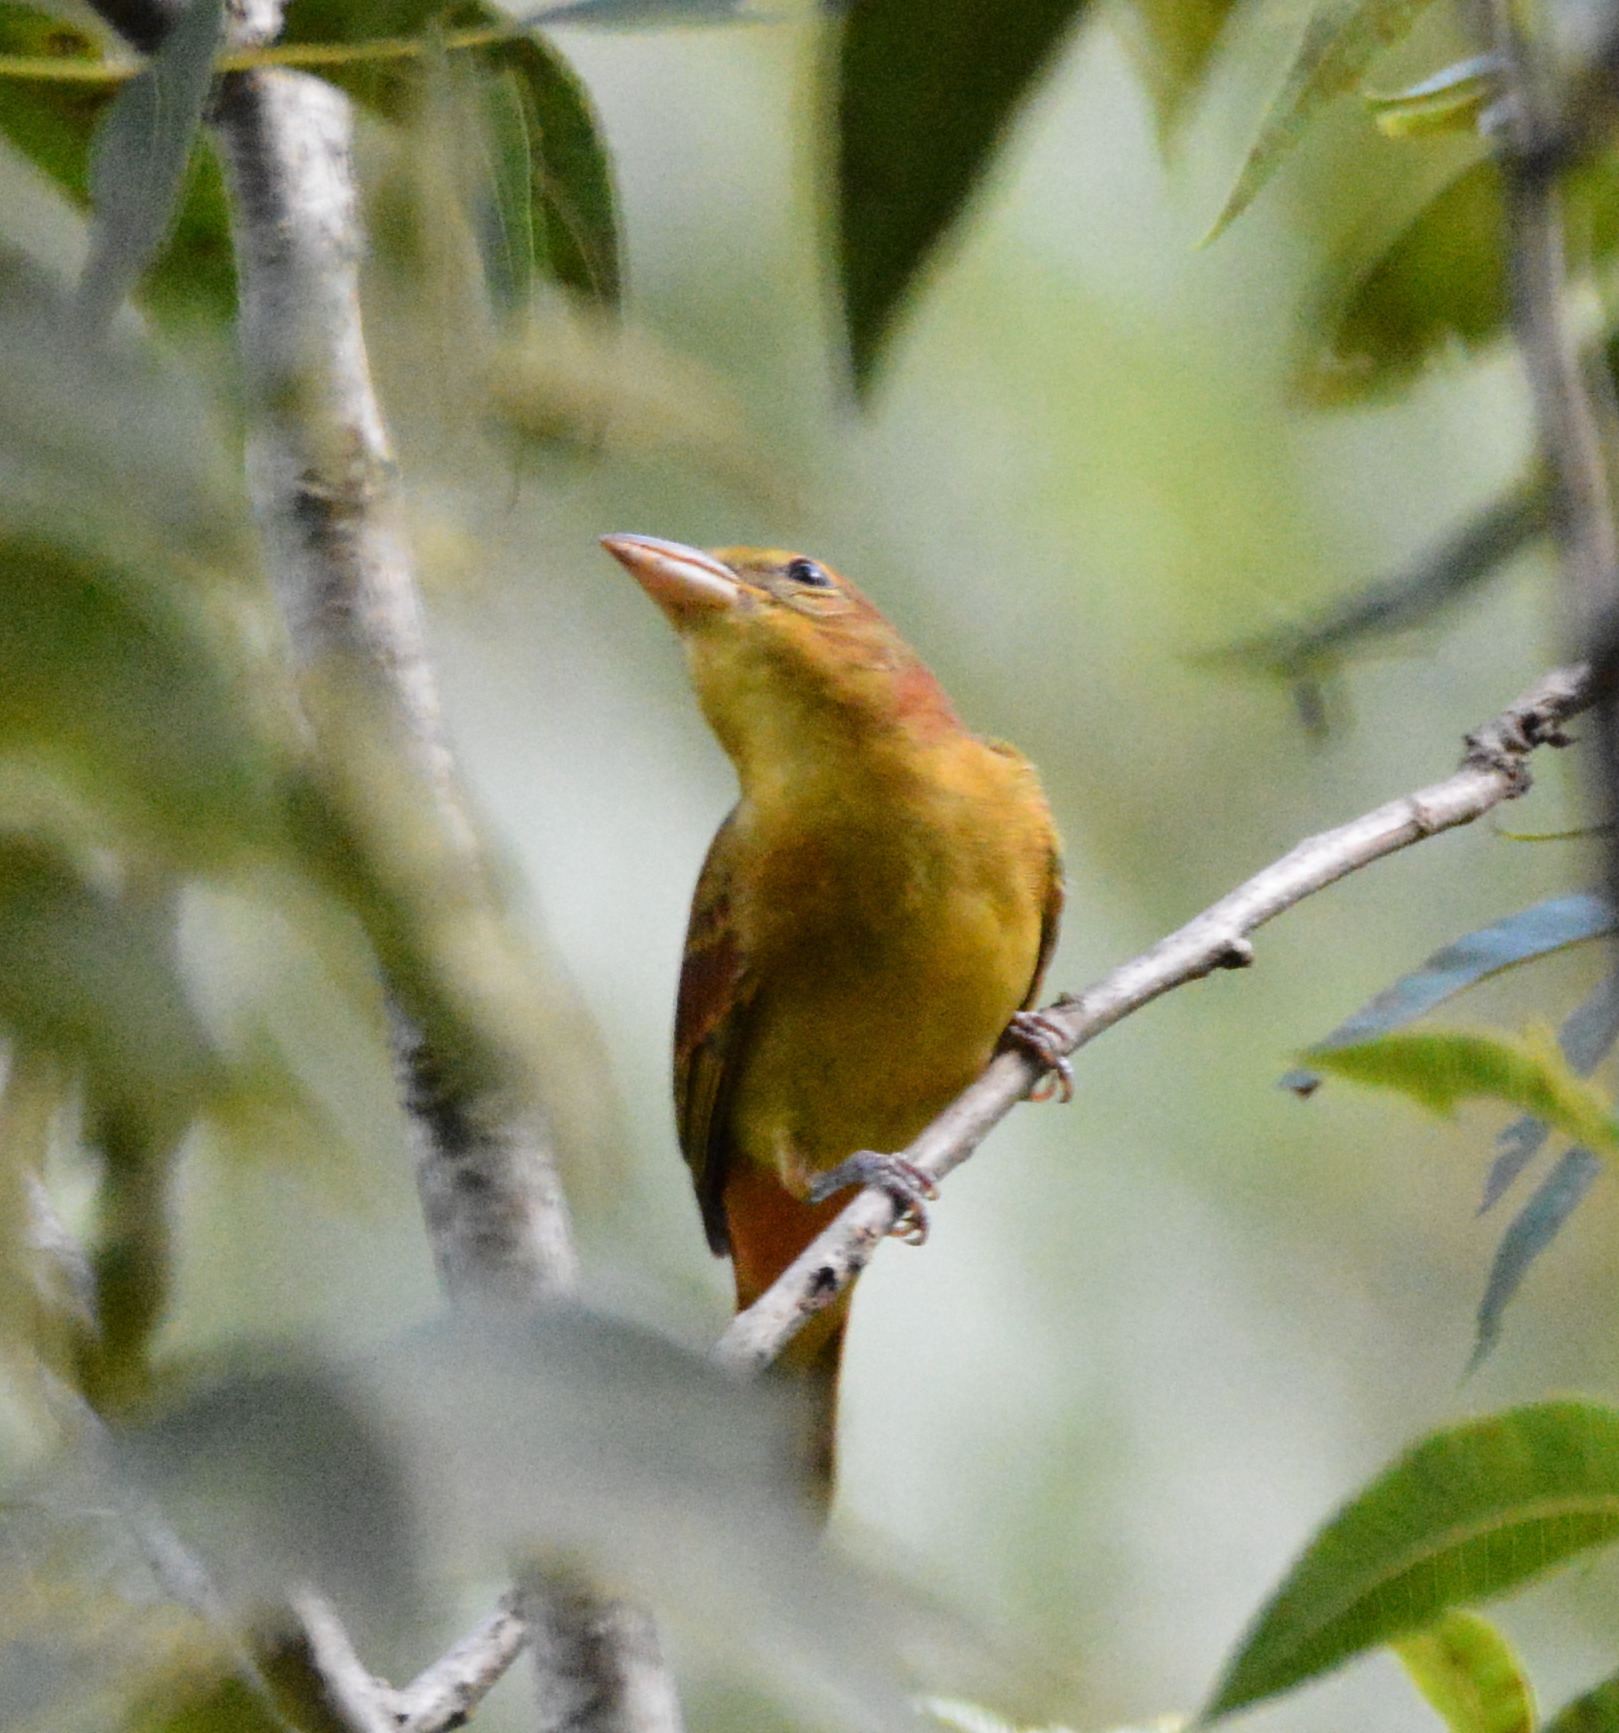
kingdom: Animalia
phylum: Chordata
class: Aves
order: Passeriformes
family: Cardinalidae
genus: Piranga
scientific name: Piranga rubra
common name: Summer tanager
